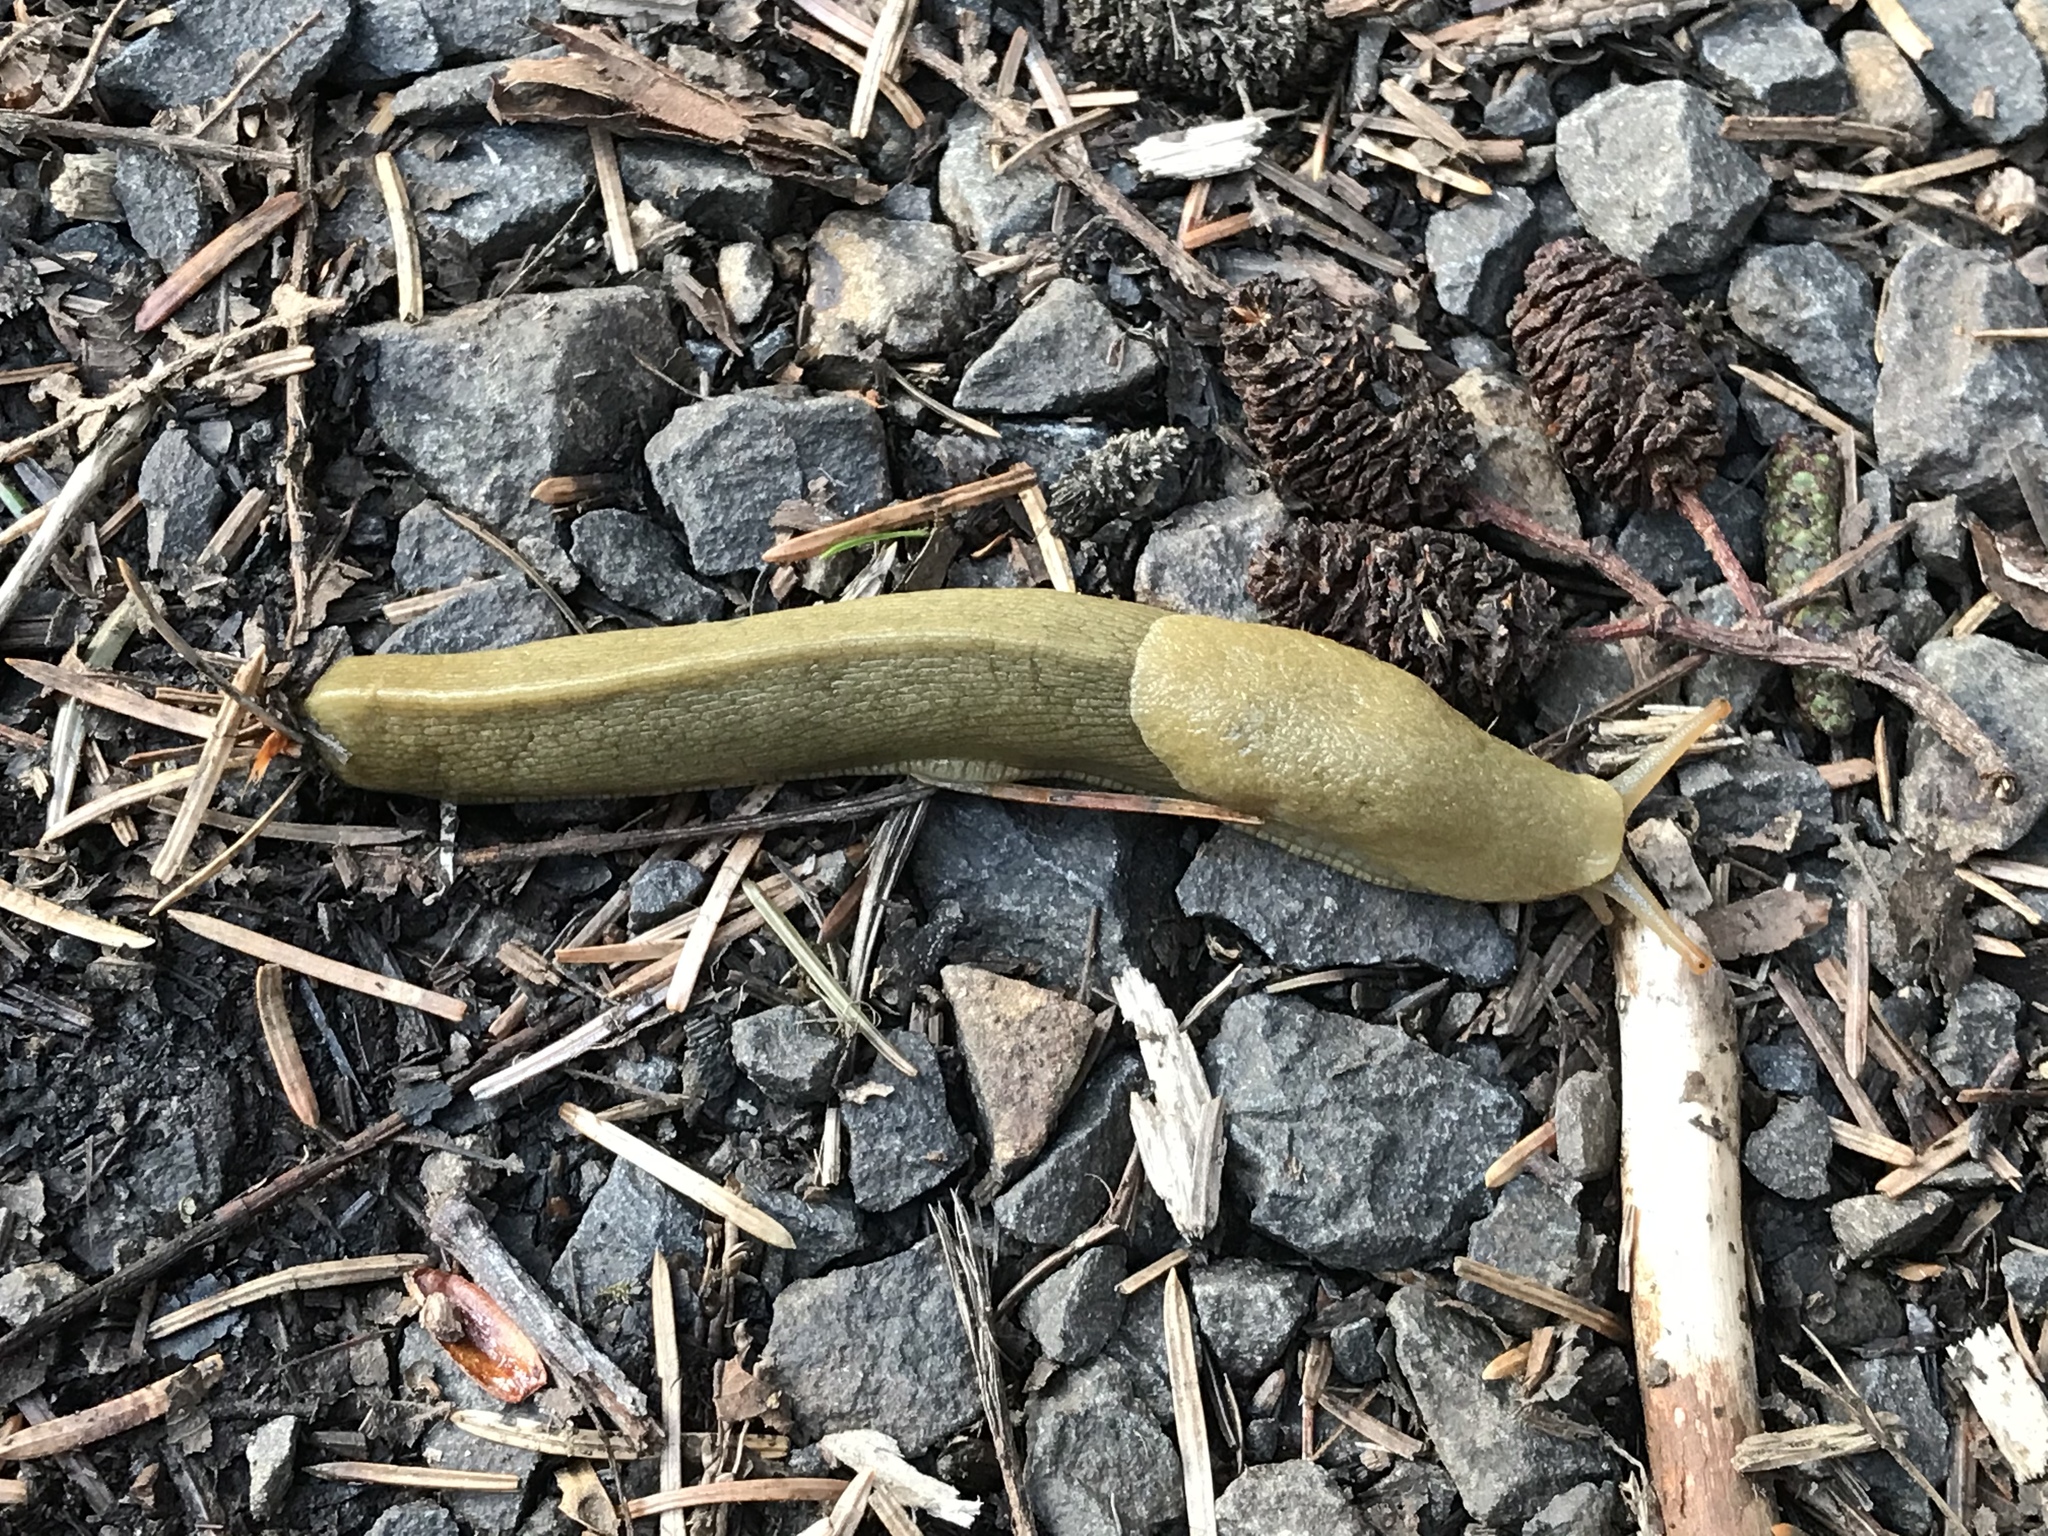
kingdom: Animalia
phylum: Mollusca
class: Gastropoda
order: Stylommatophora
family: Ariolimacidae
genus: Ariolimax
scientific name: Ariolimax columbianus
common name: Pacific banana slug
